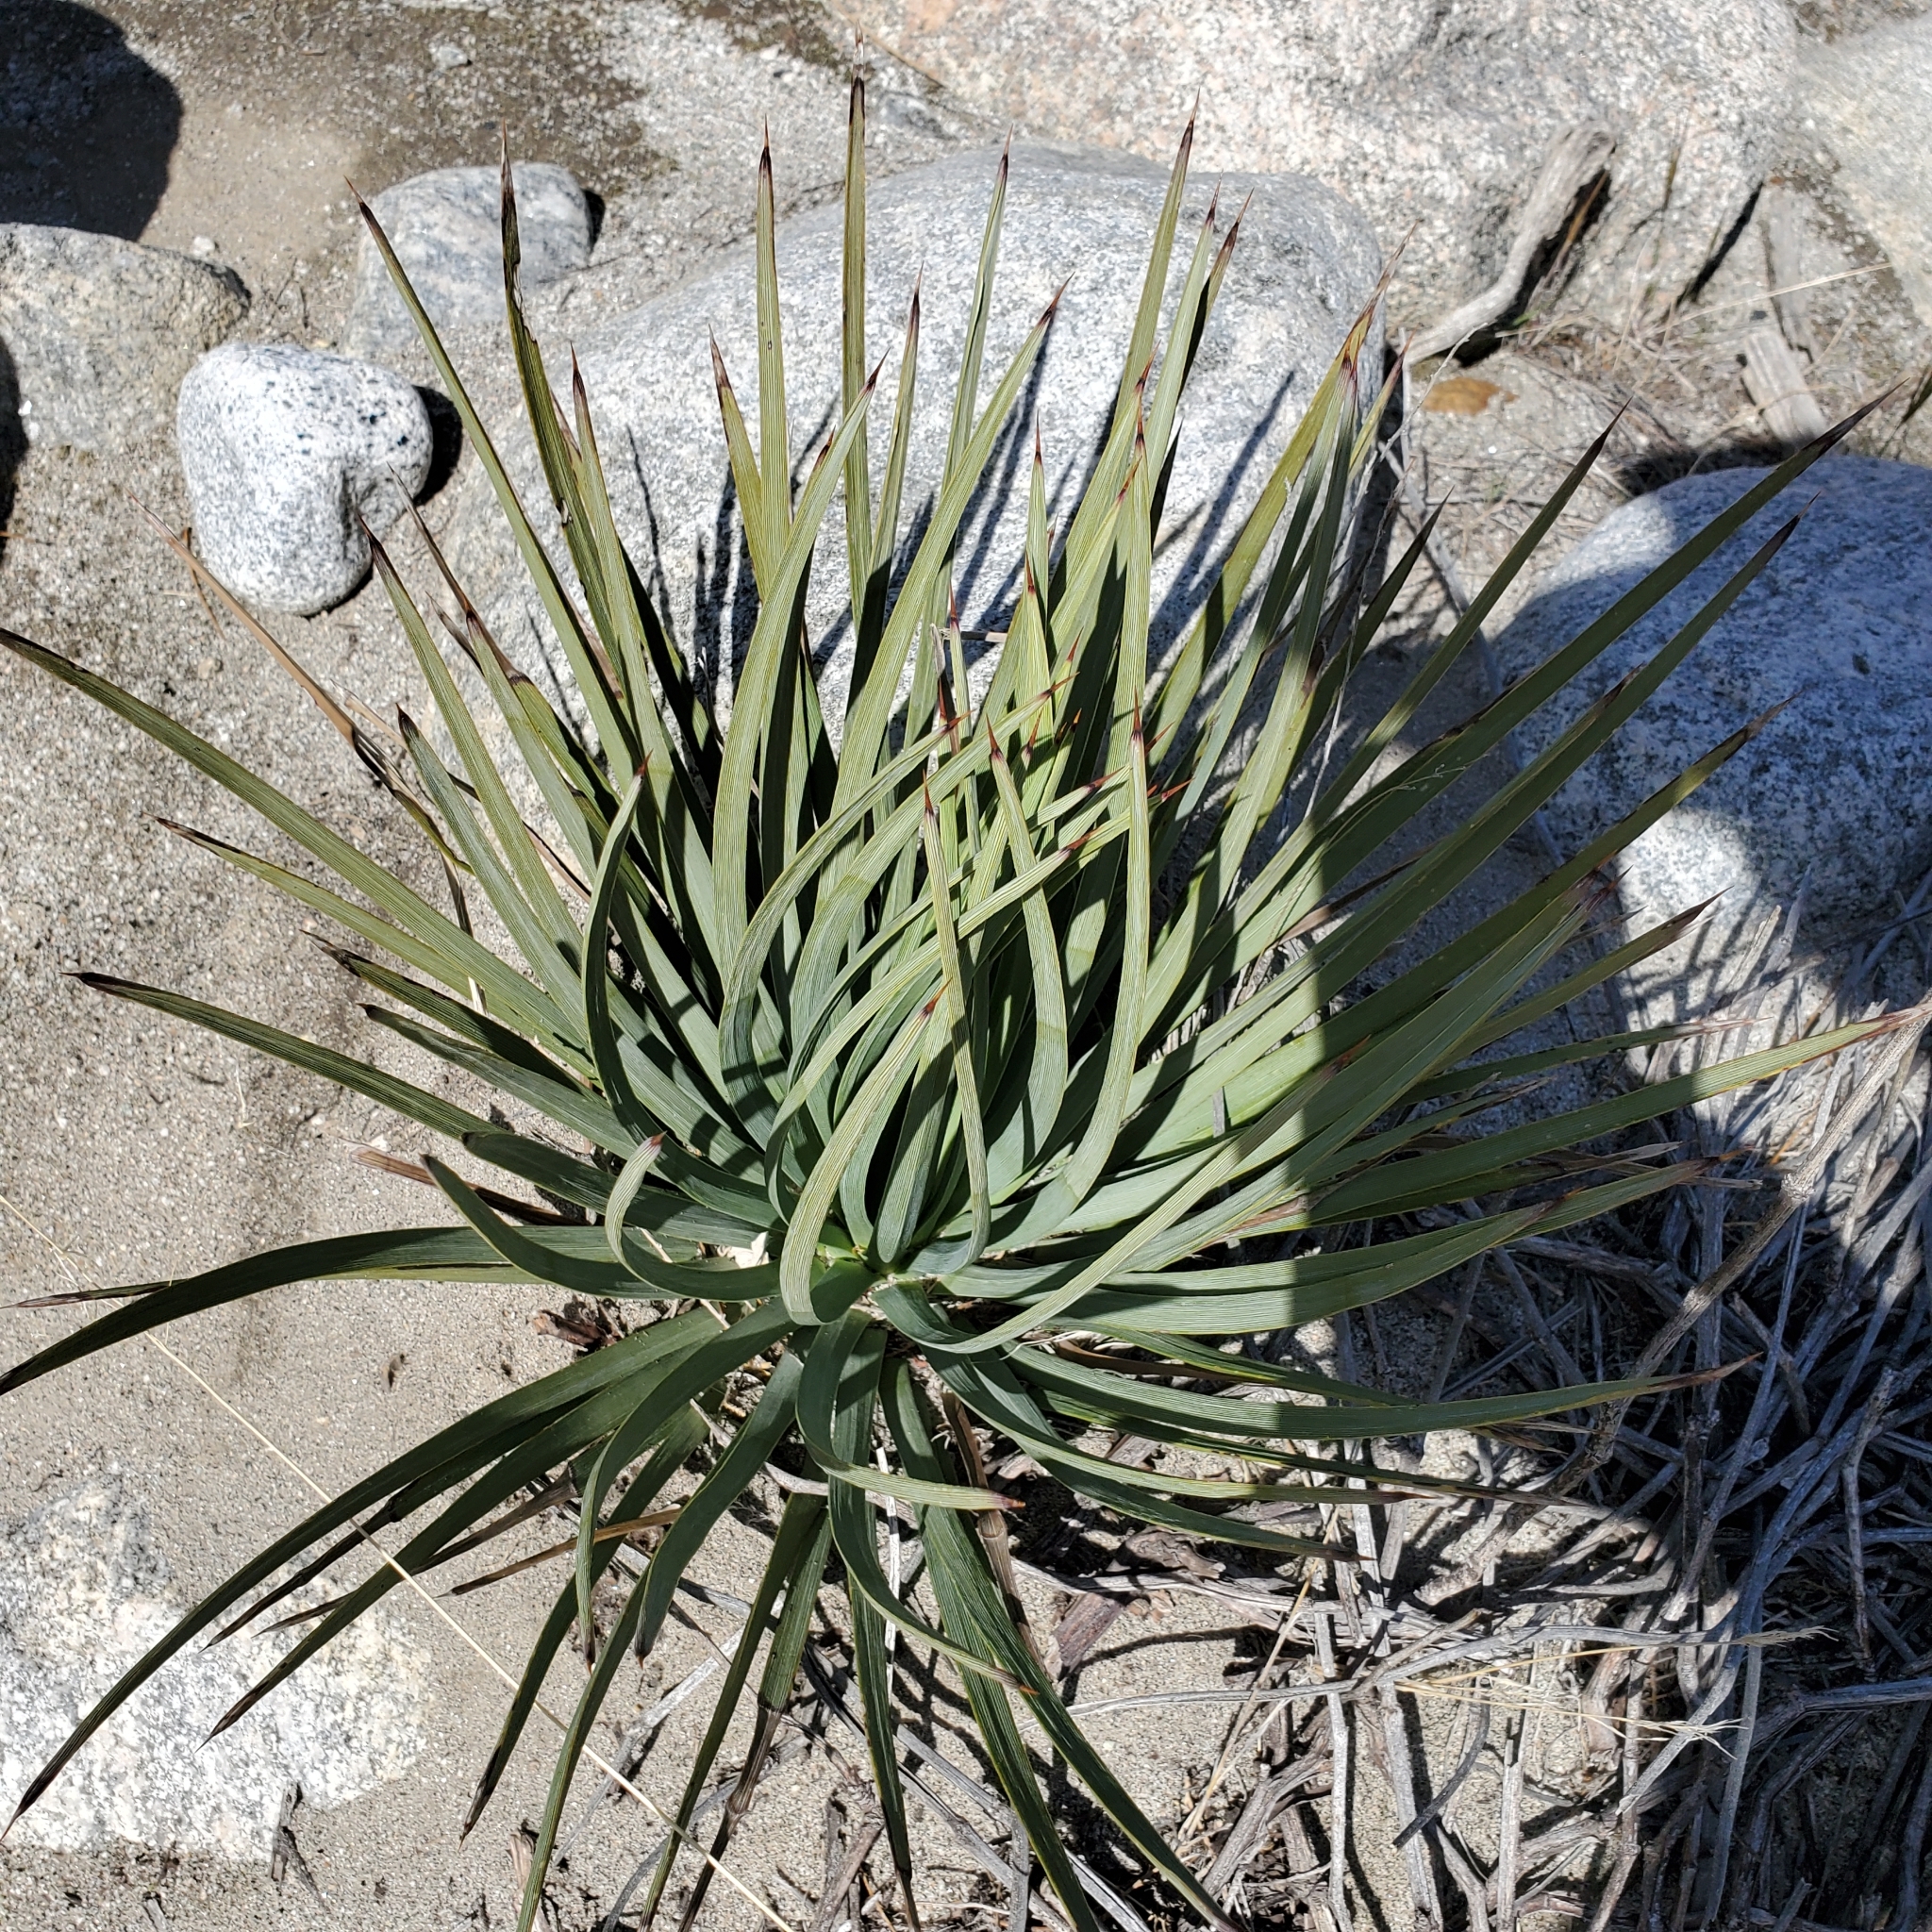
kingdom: Plantae
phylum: Tracheophyta
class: Liliopsida
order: Asparagales
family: Asparagaceae
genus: Hesperoyucca
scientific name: Hesperoyucca whipplei
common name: Our lord's-candle
